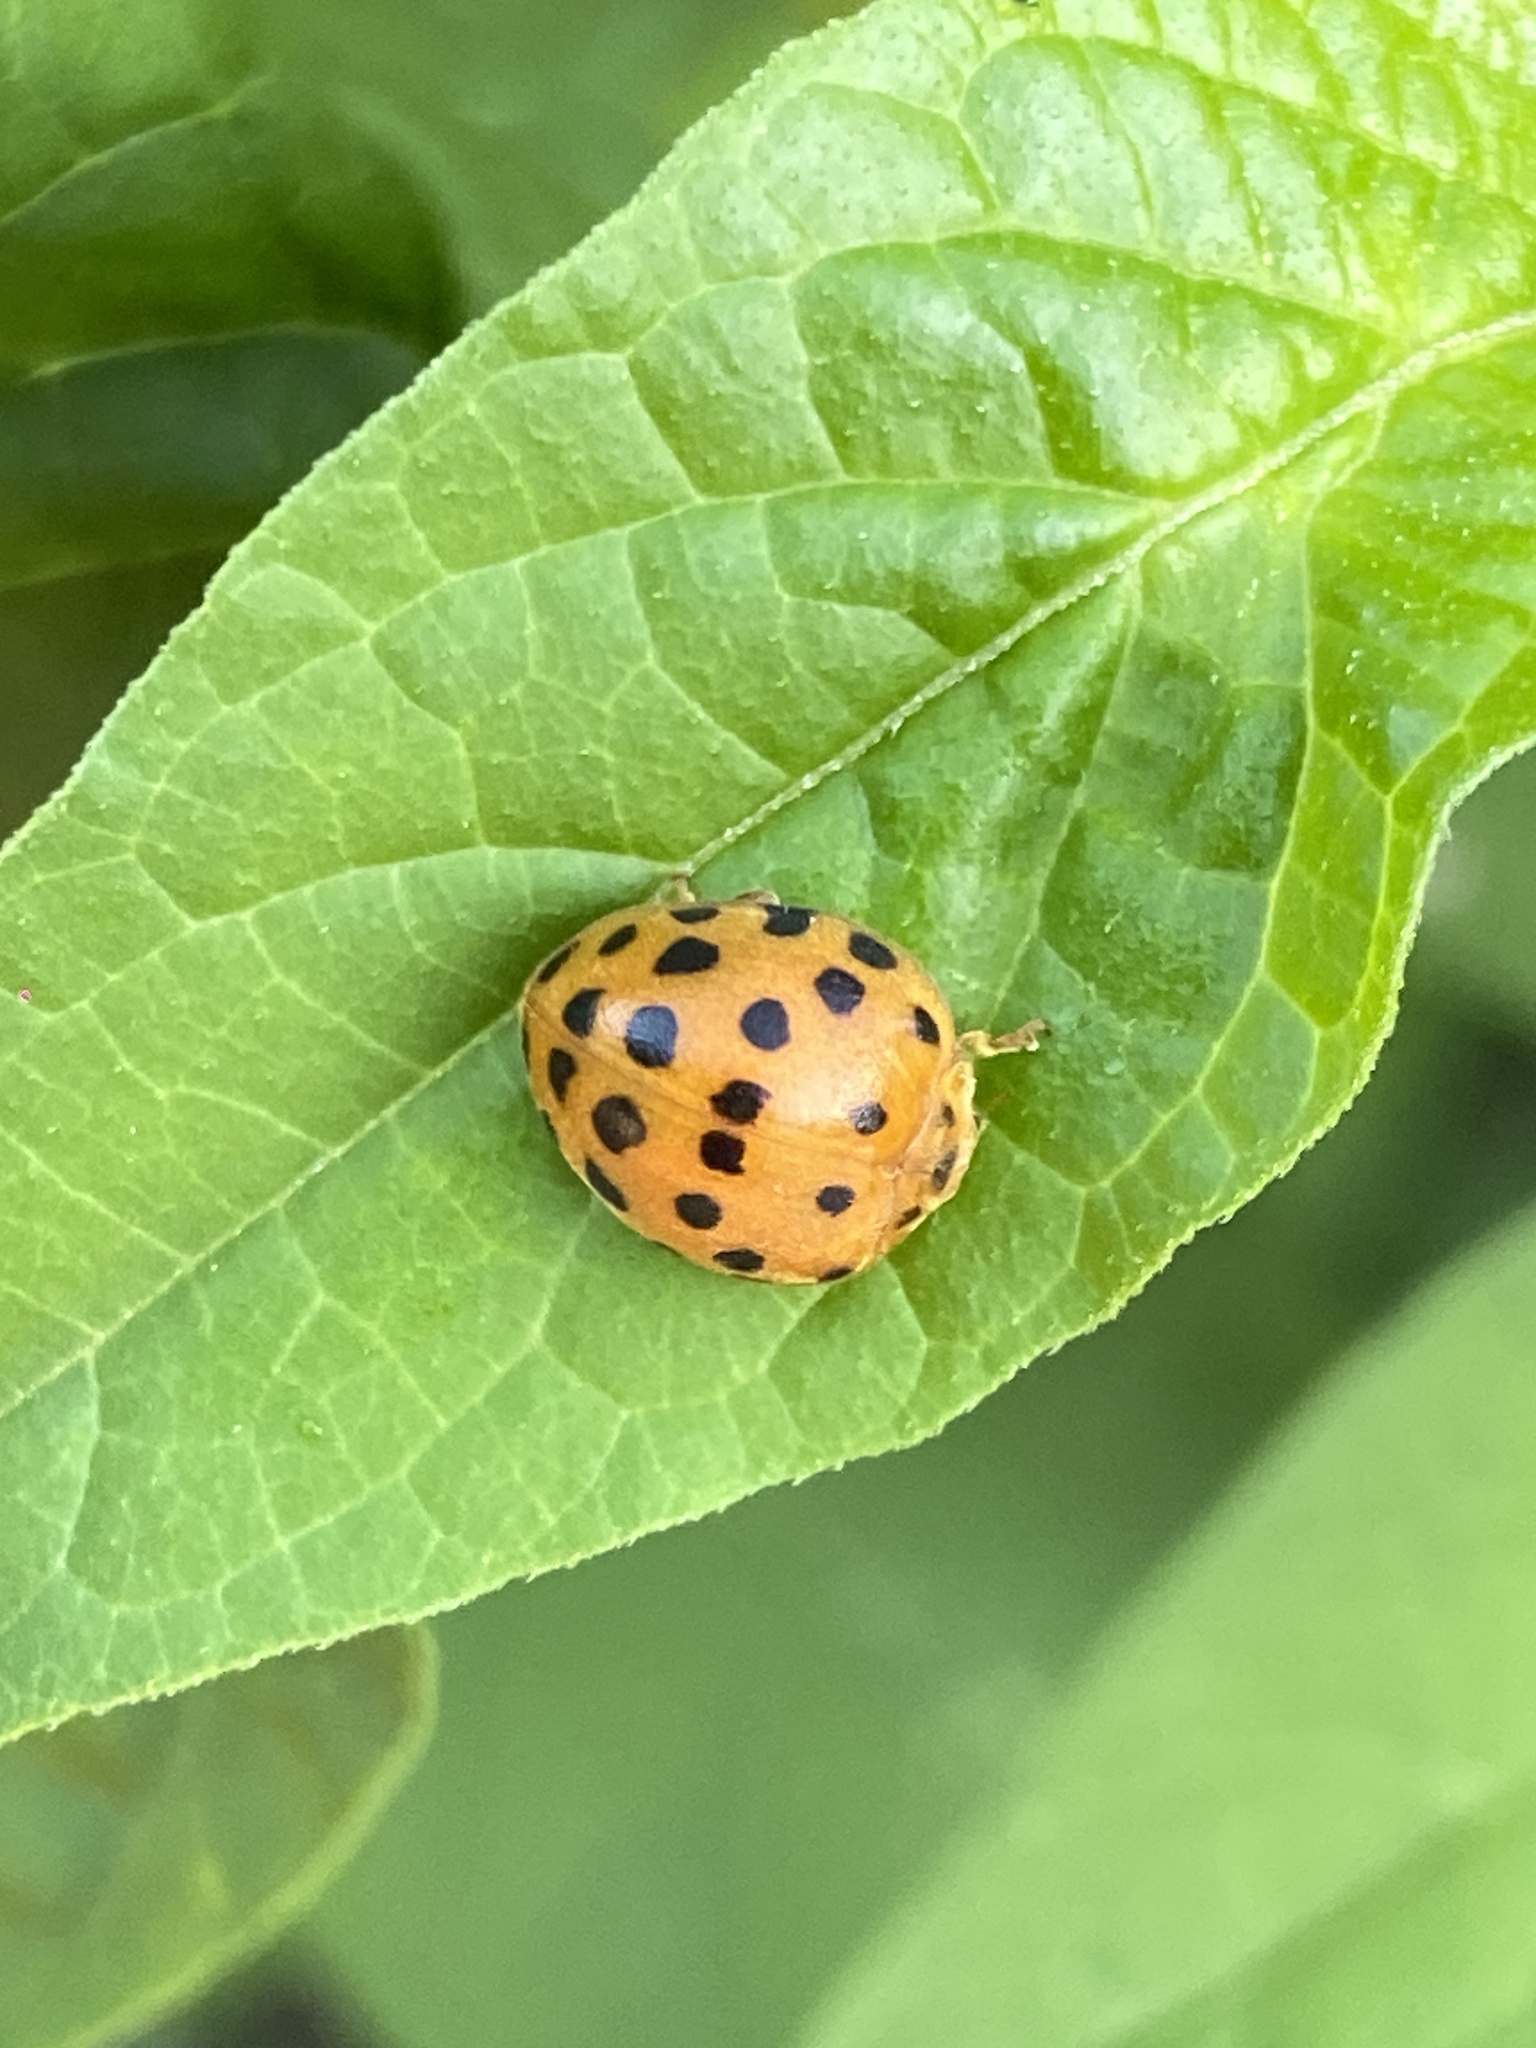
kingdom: Animalia
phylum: Arthropoda
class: Insecta
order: Coleoptera
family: Coccinellidae
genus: Henosepilachna
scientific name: Henosepilachna vigintioctopunctata
